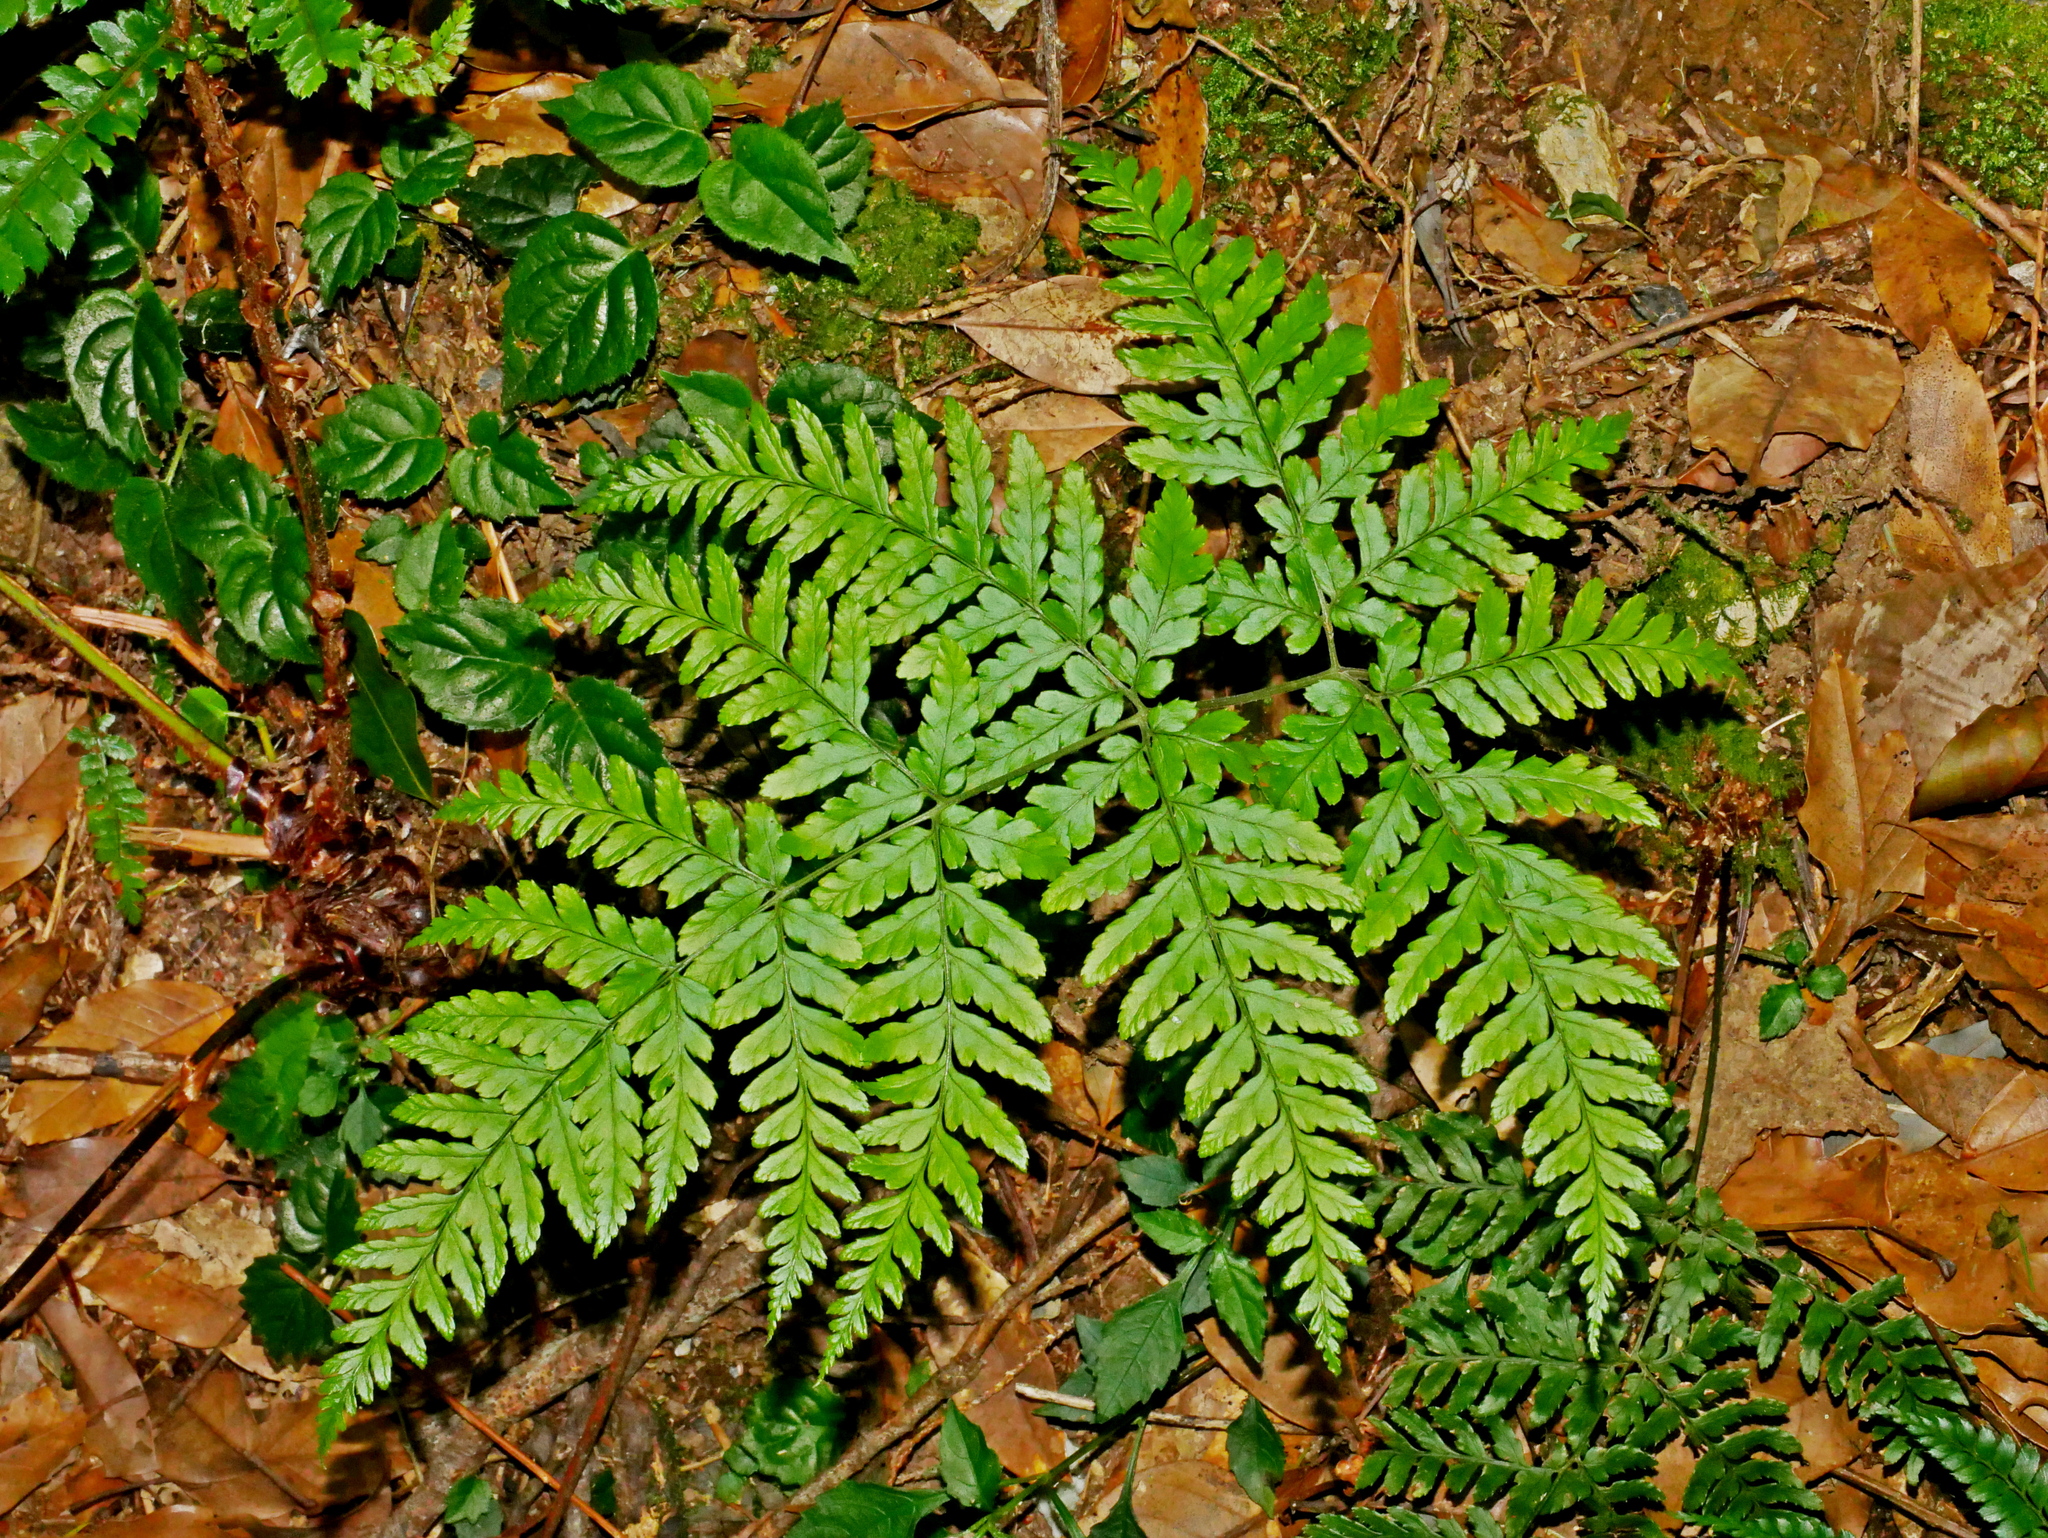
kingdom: Plantae
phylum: Tracheophyta
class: Polypodiopsida
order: Polypodiales
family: Dryopteridaceae
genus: Dryopteris
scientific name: Dryopteris cacaina
